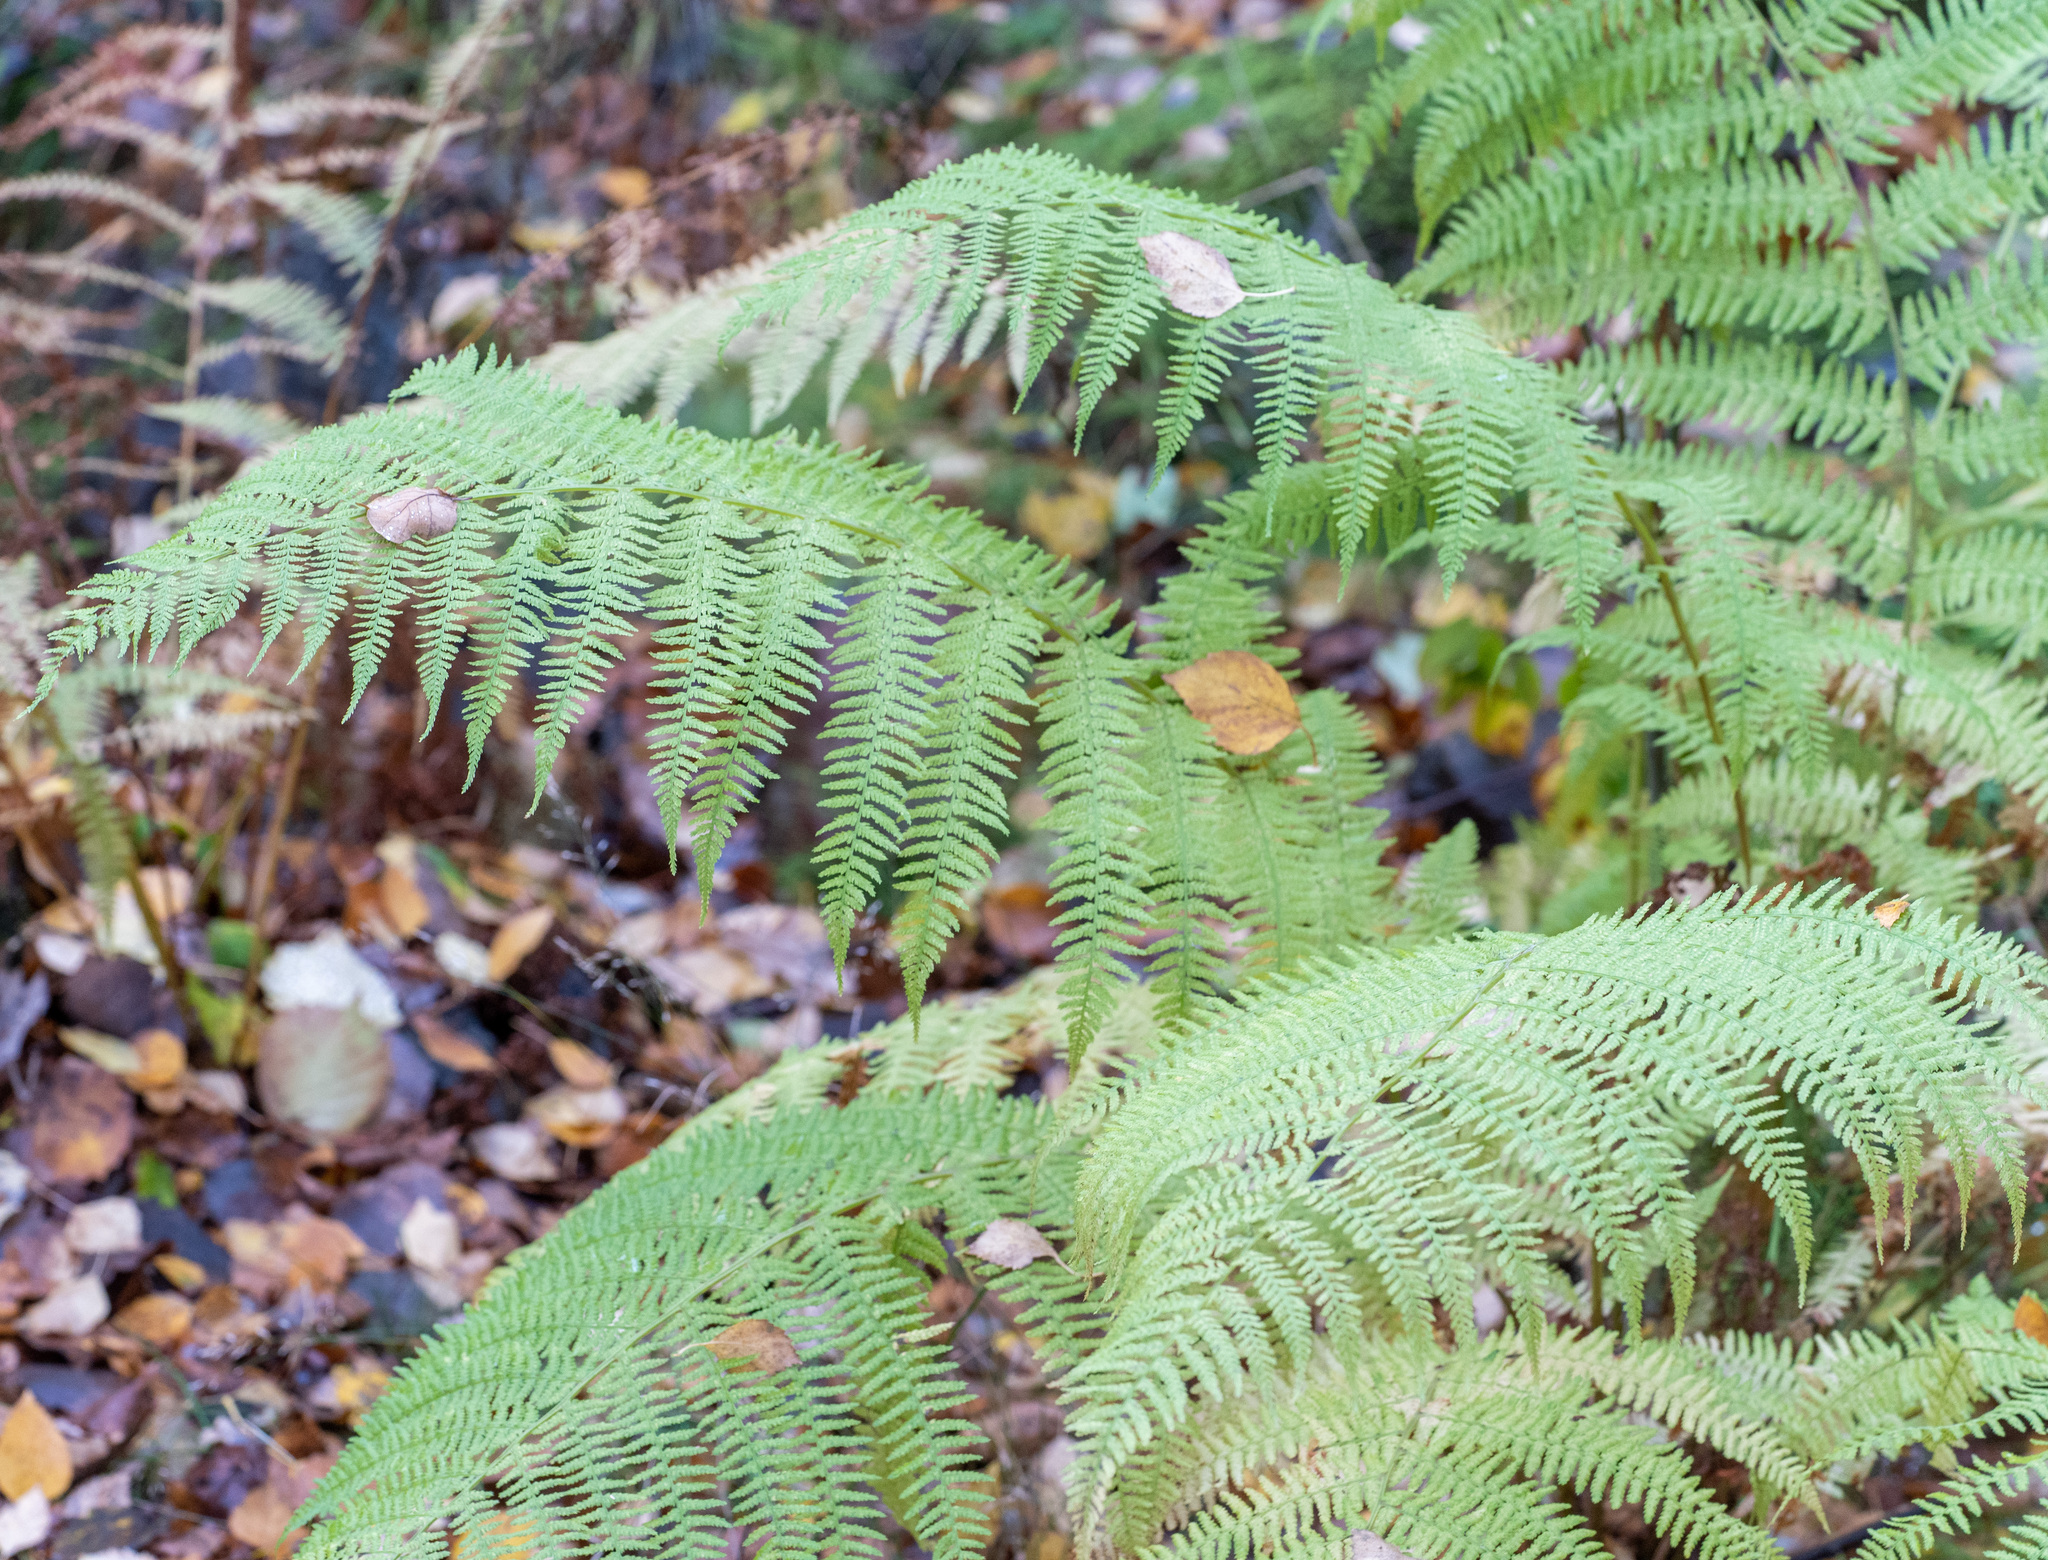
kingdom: Plantae
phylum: Tracheophyta
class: Polypodiopsida
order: Polypodiales
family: Athyriaceae
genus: Athyrium
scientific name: Athyrium filix-femina
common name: Lady fern
